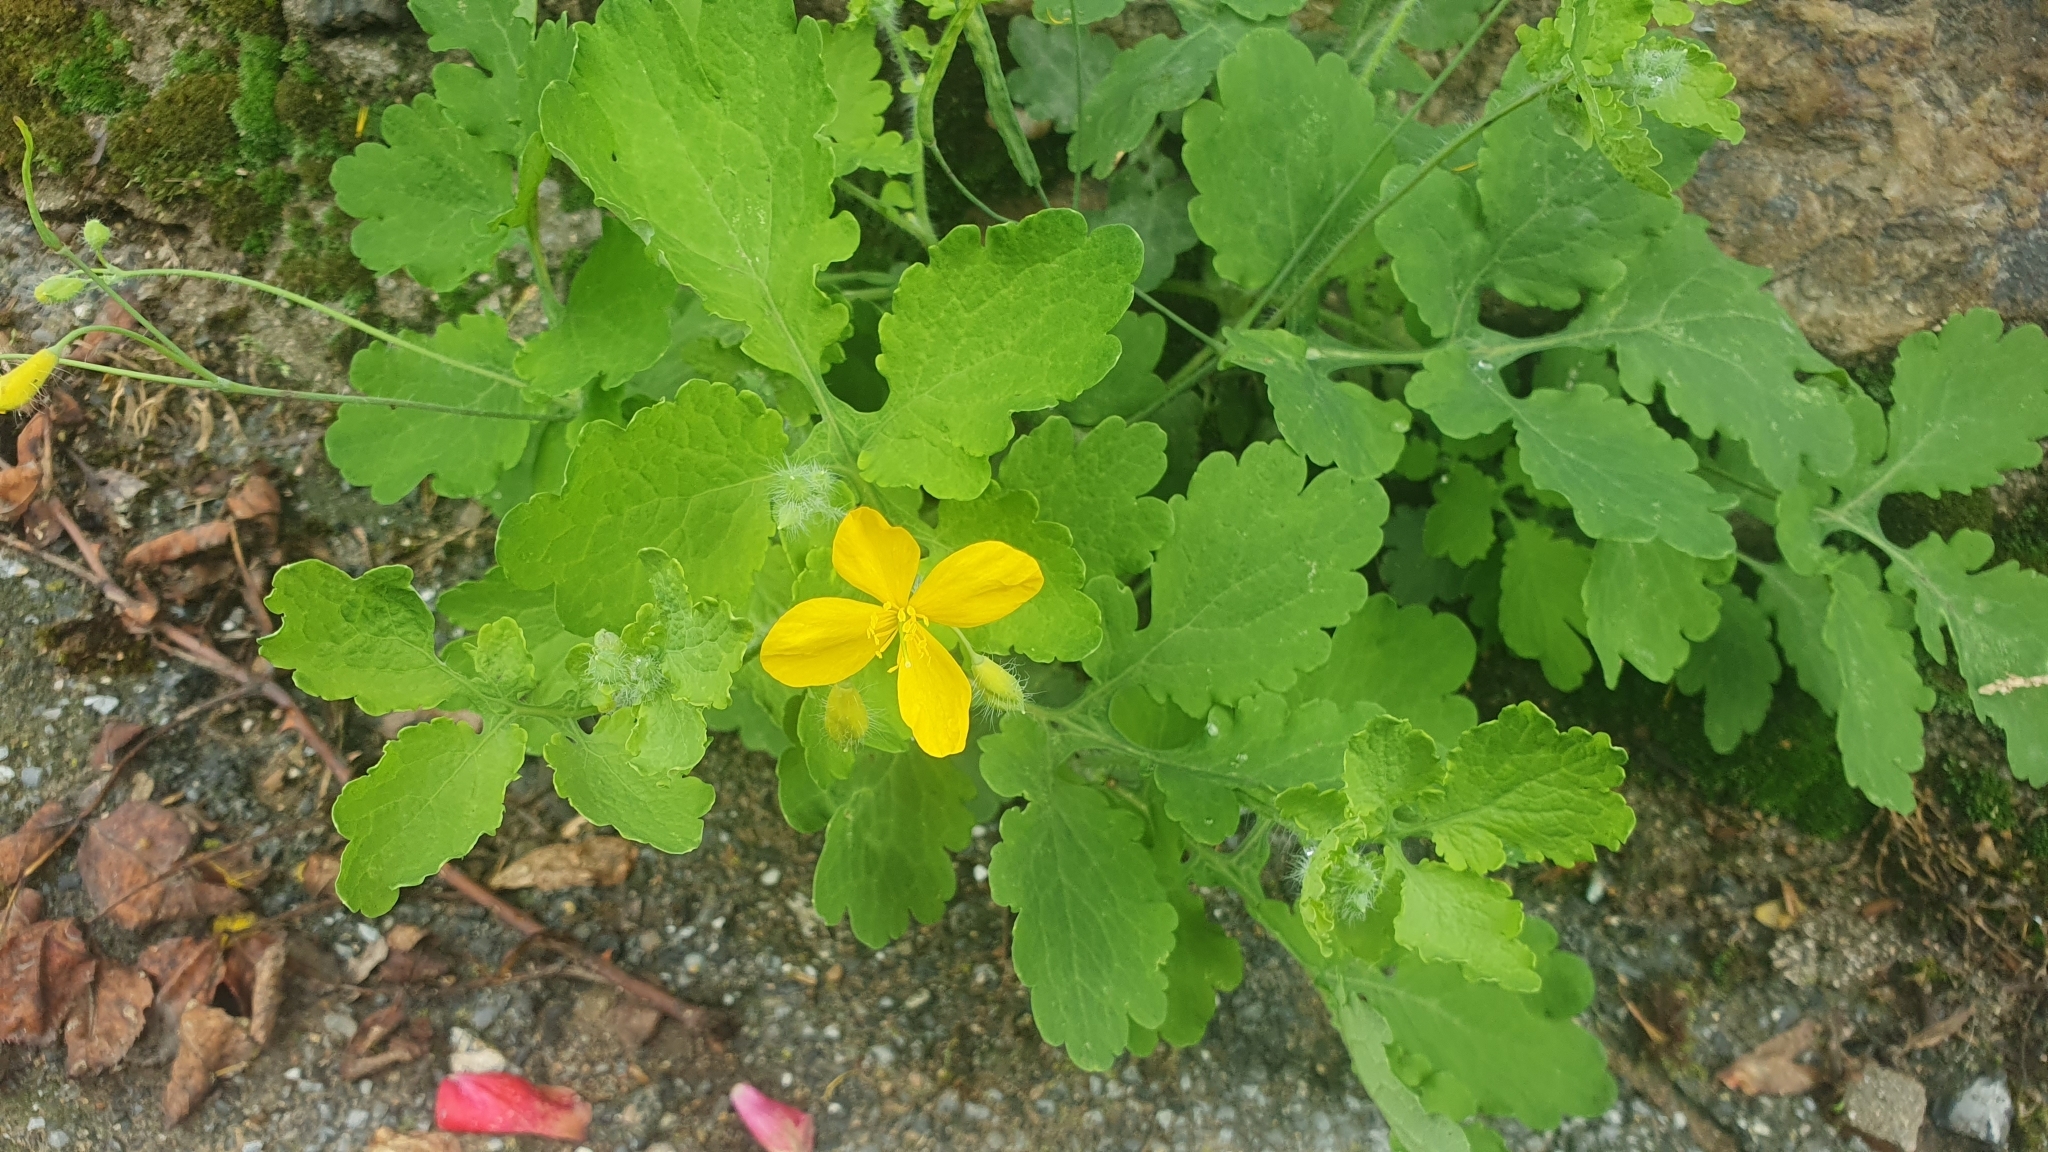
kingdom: Plantae
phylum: Tracheophyta
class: Magnoliopsida
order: Ranunculales
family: Papaveraceae
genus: Chelidonium
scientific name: Chelidonium majus
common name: Greater celandine
